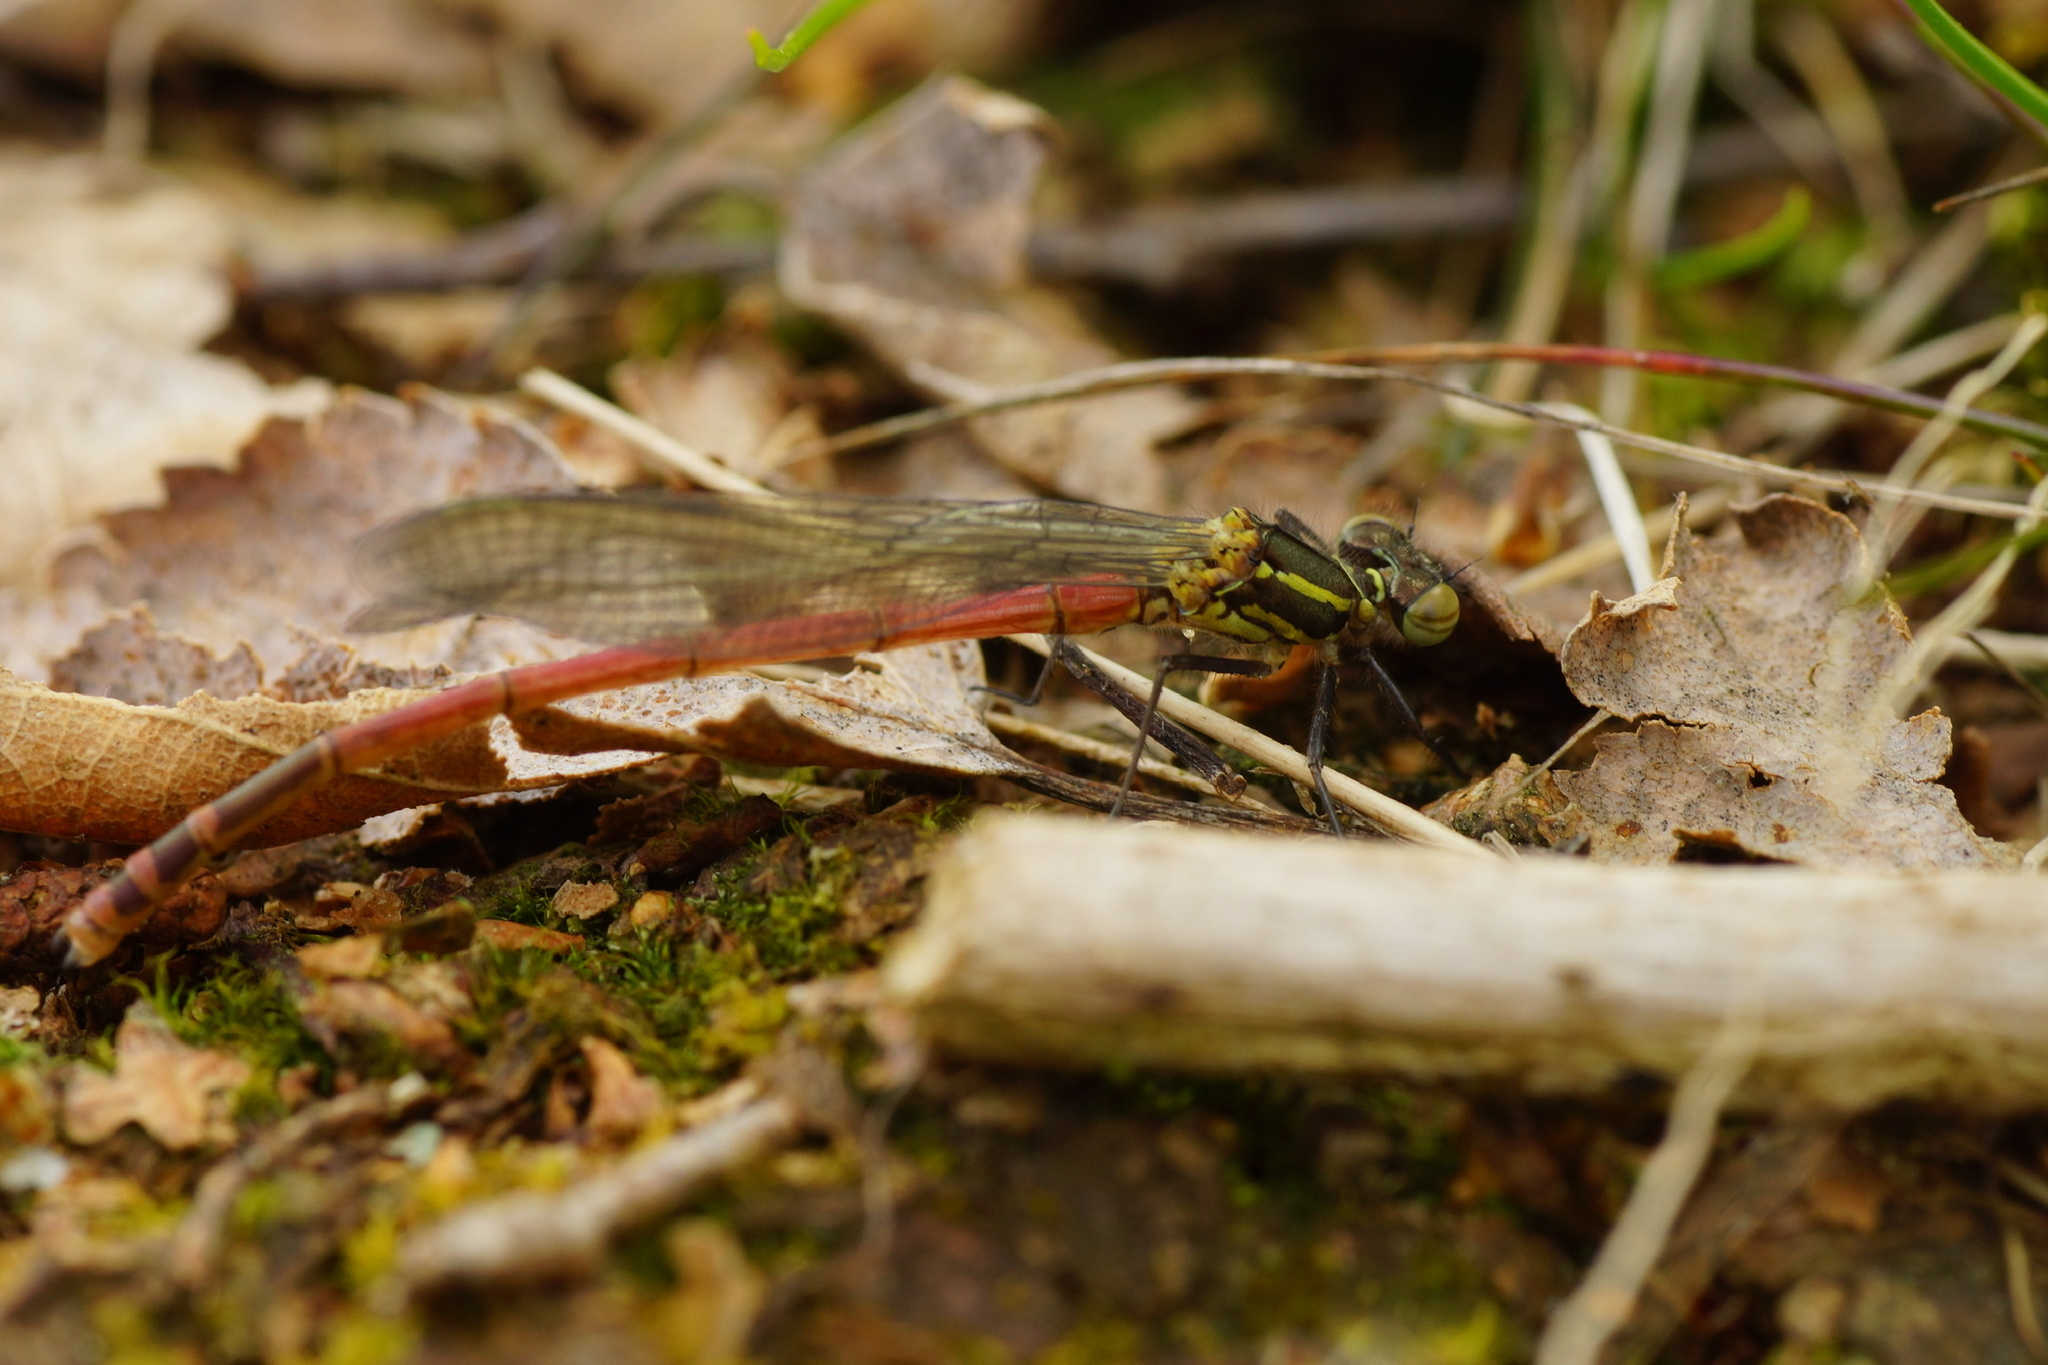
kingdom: Animalia
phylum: Arthropoda
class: Insecta
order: Odonata
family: Coenagrionidae
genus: Pyrrhosoma
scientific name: Pyrrhosoma nymphula
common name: Large red damsel
